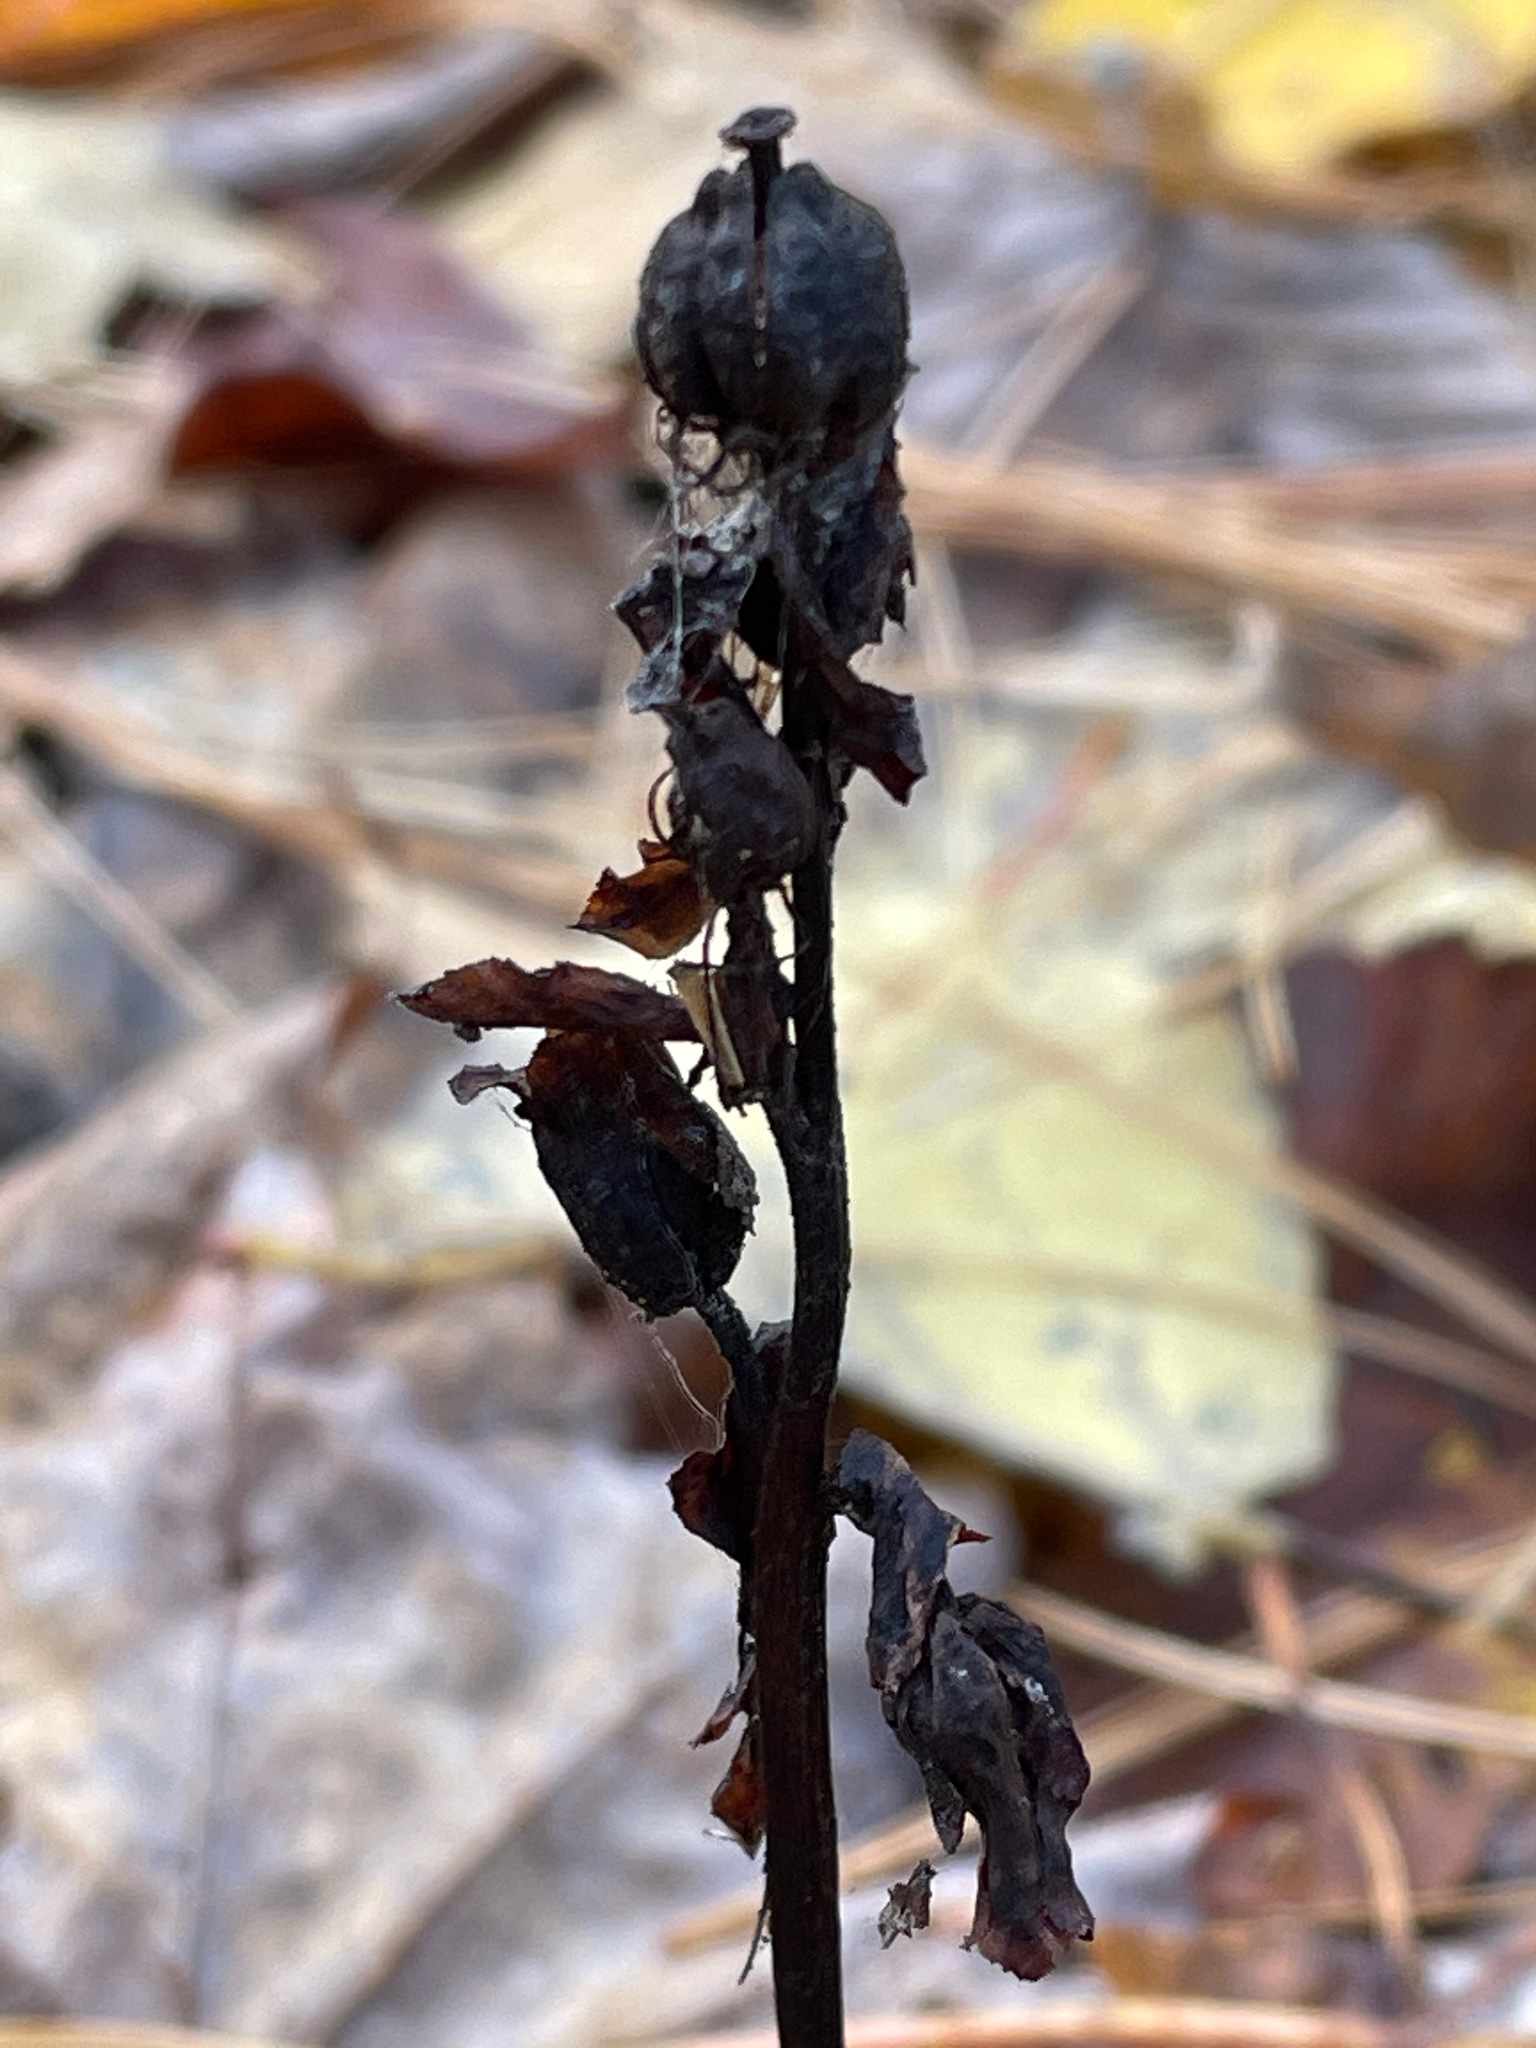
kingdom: Plantae
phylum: Tracheophyta
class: Magnoliopsida
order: Ericales
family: Ericaceae
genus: Hypopitys
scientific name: Hypopitys monotropa
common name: Yellow bird's-nest
